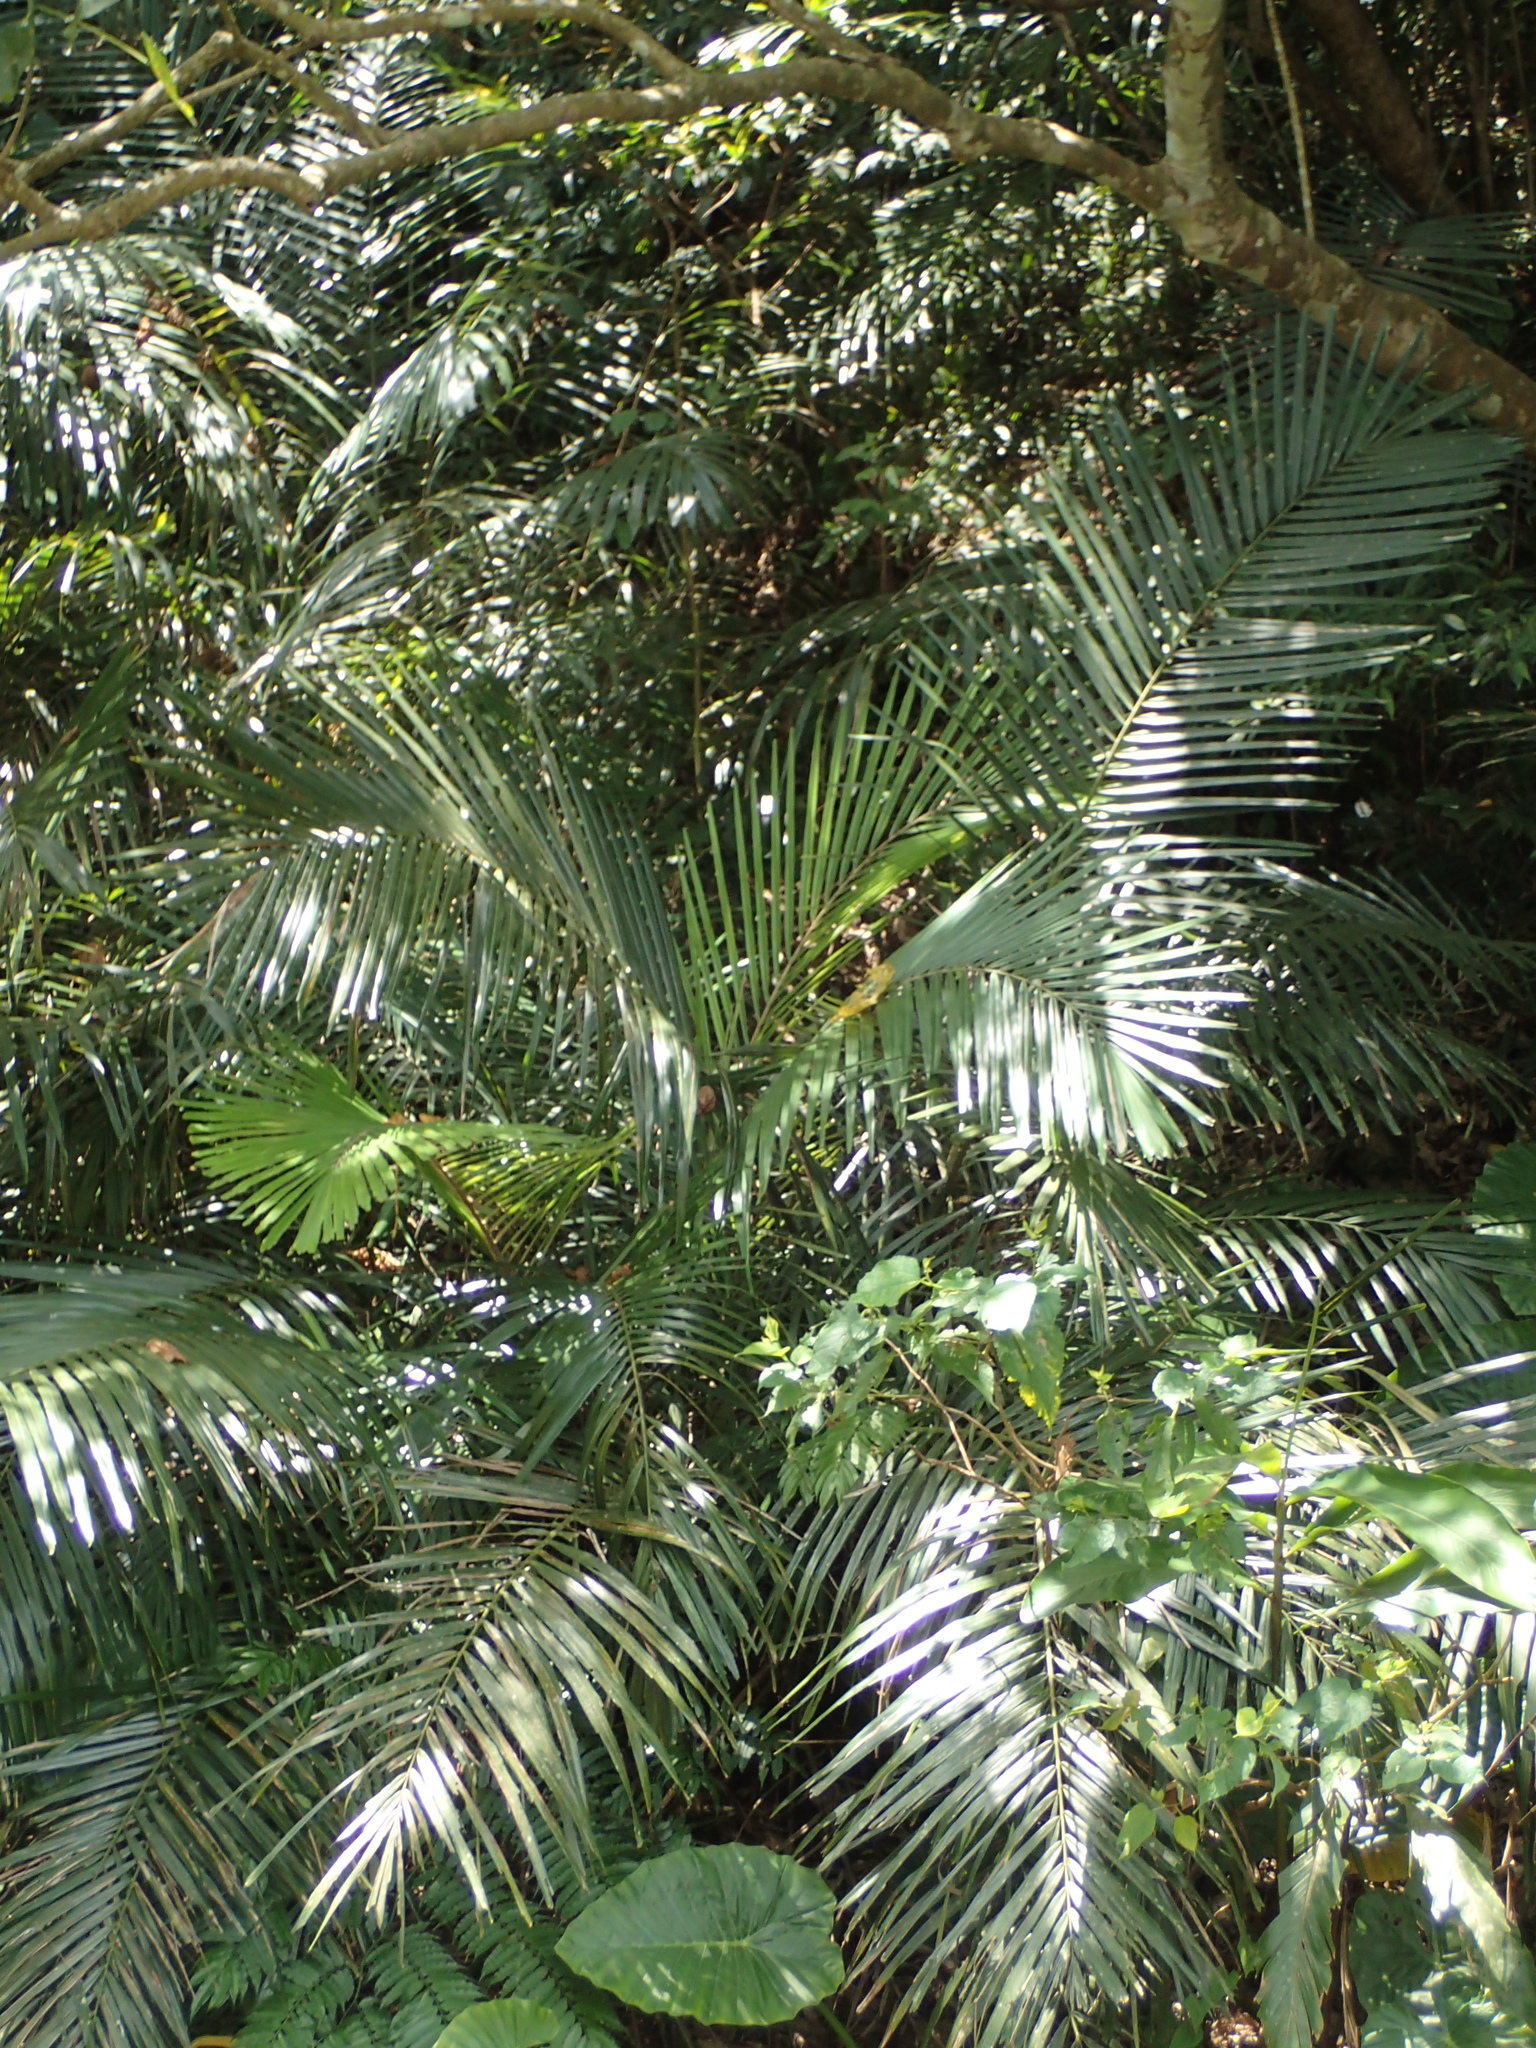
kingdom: Plantae
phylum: Tracheophyta
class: Liliopsida
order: Arecales
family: Arecaceae
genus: Arenga
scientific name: Arenga engleri
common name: Formosan sugar palm
